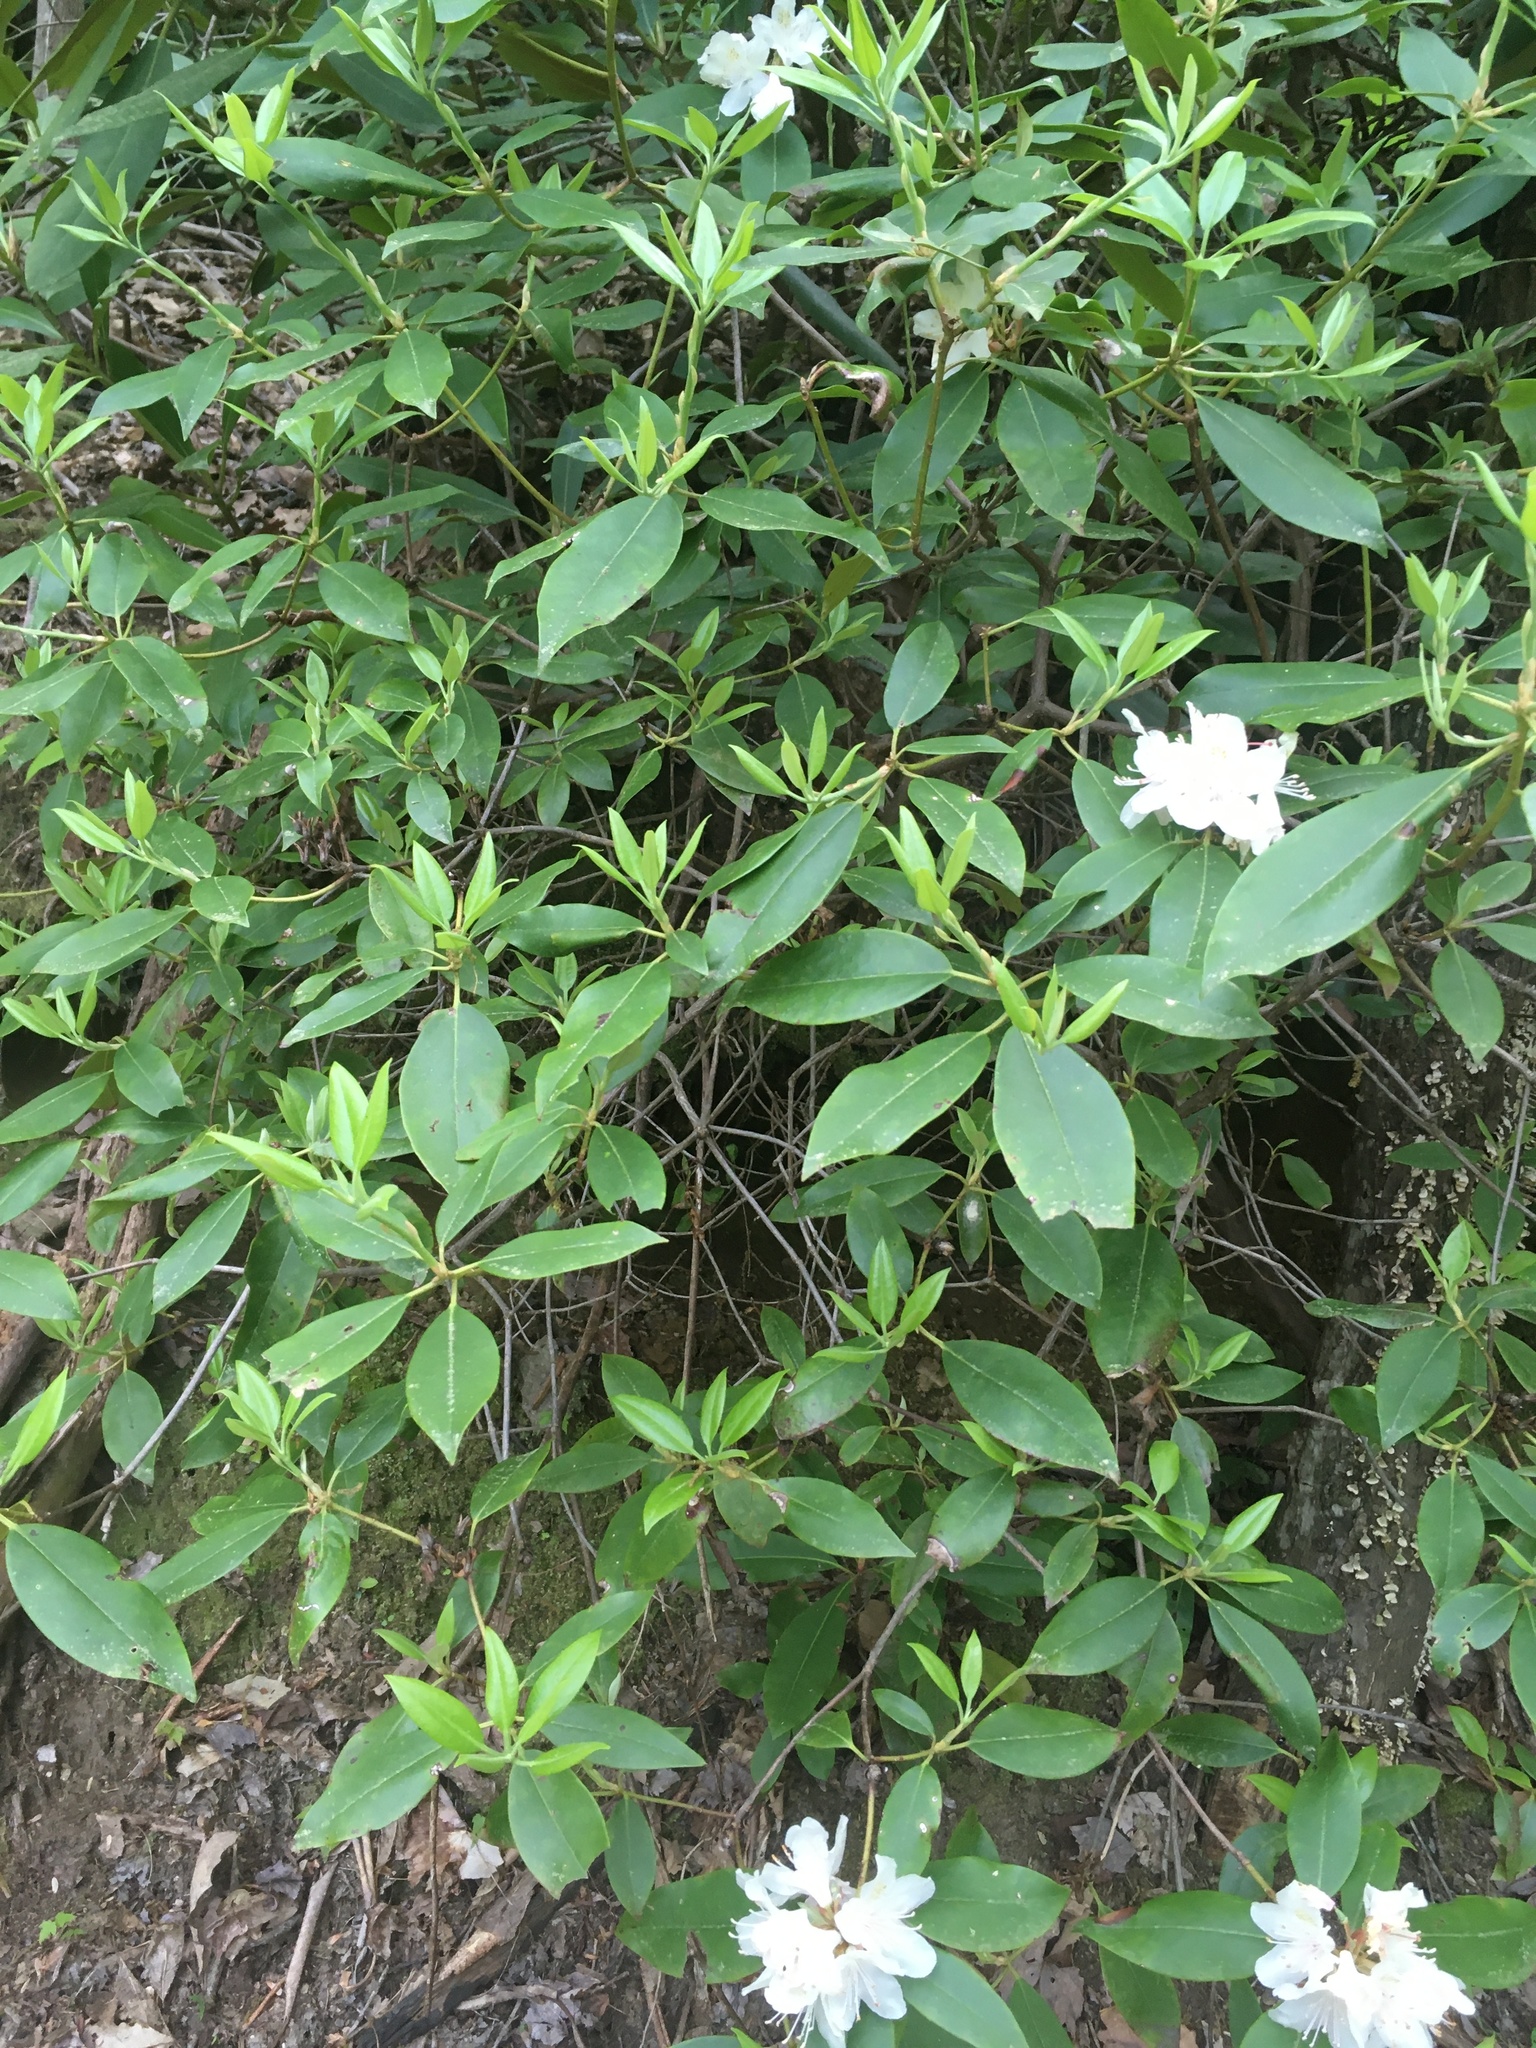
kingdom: Plantae
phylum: Tracheophyta
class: Magnoliopsida
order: Ericales
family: Ericaceae
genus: Rhododendron
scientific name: Rhododendron minus
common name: Piedmont rhododendron
